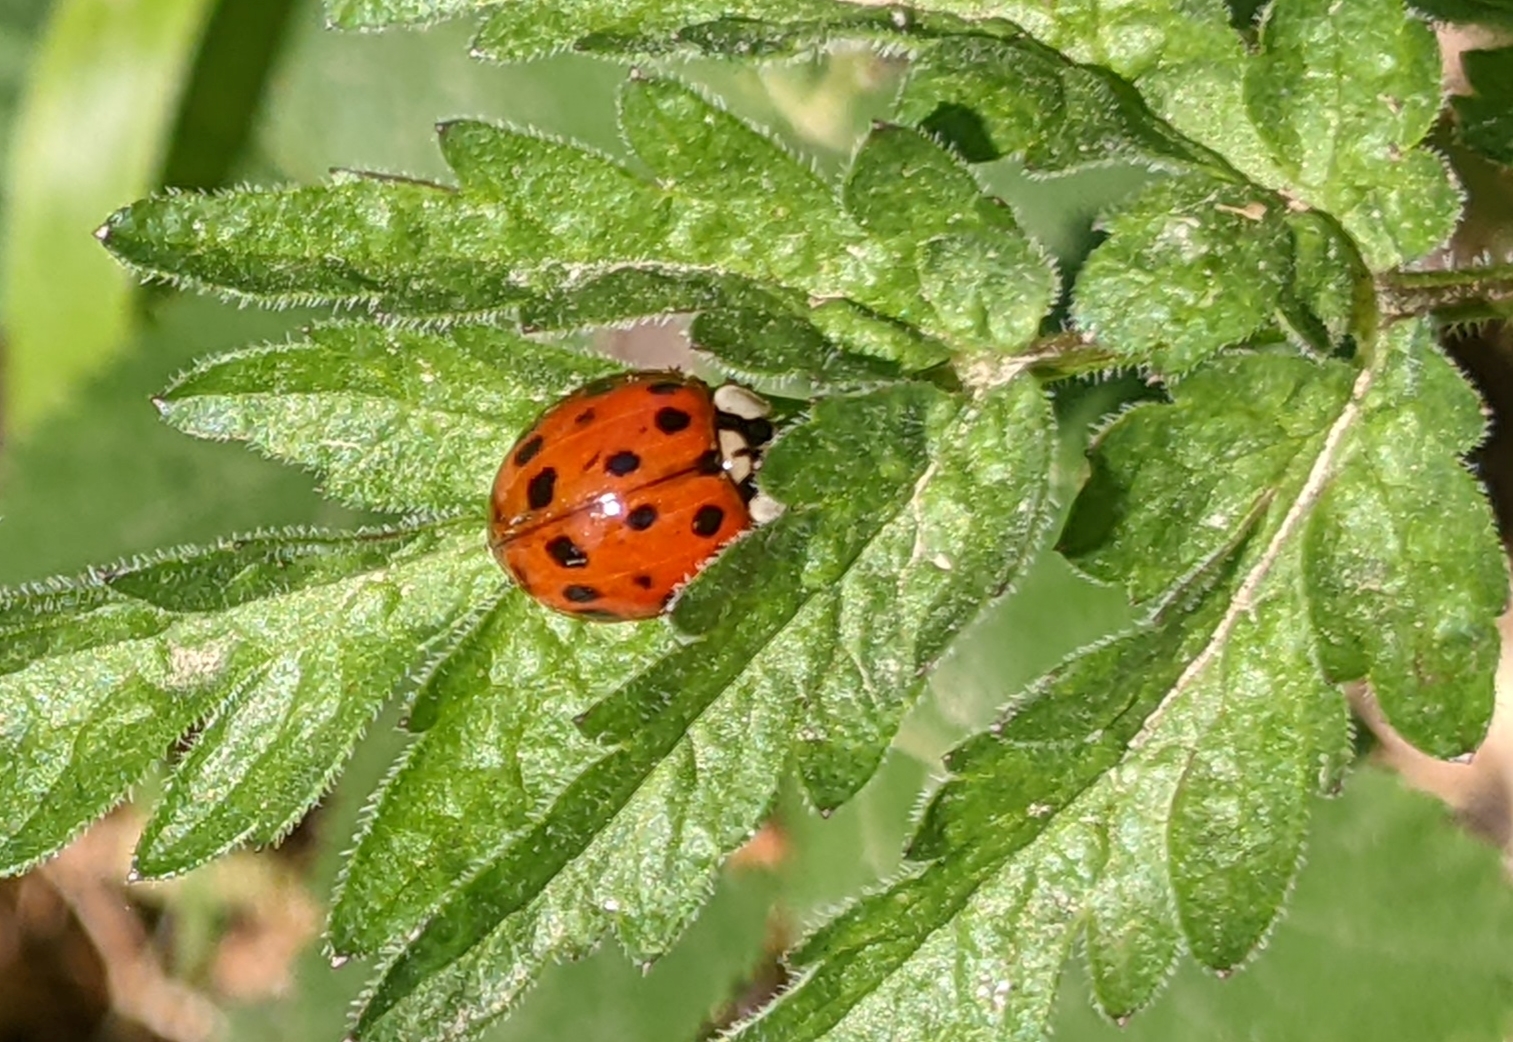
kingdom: Animalia
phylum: Arthropoda
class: Insecta
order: Coleoptera
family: Coccinellidae
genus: Harmonia
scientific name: Harmonia axyridis
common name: Harlequin ladybird
